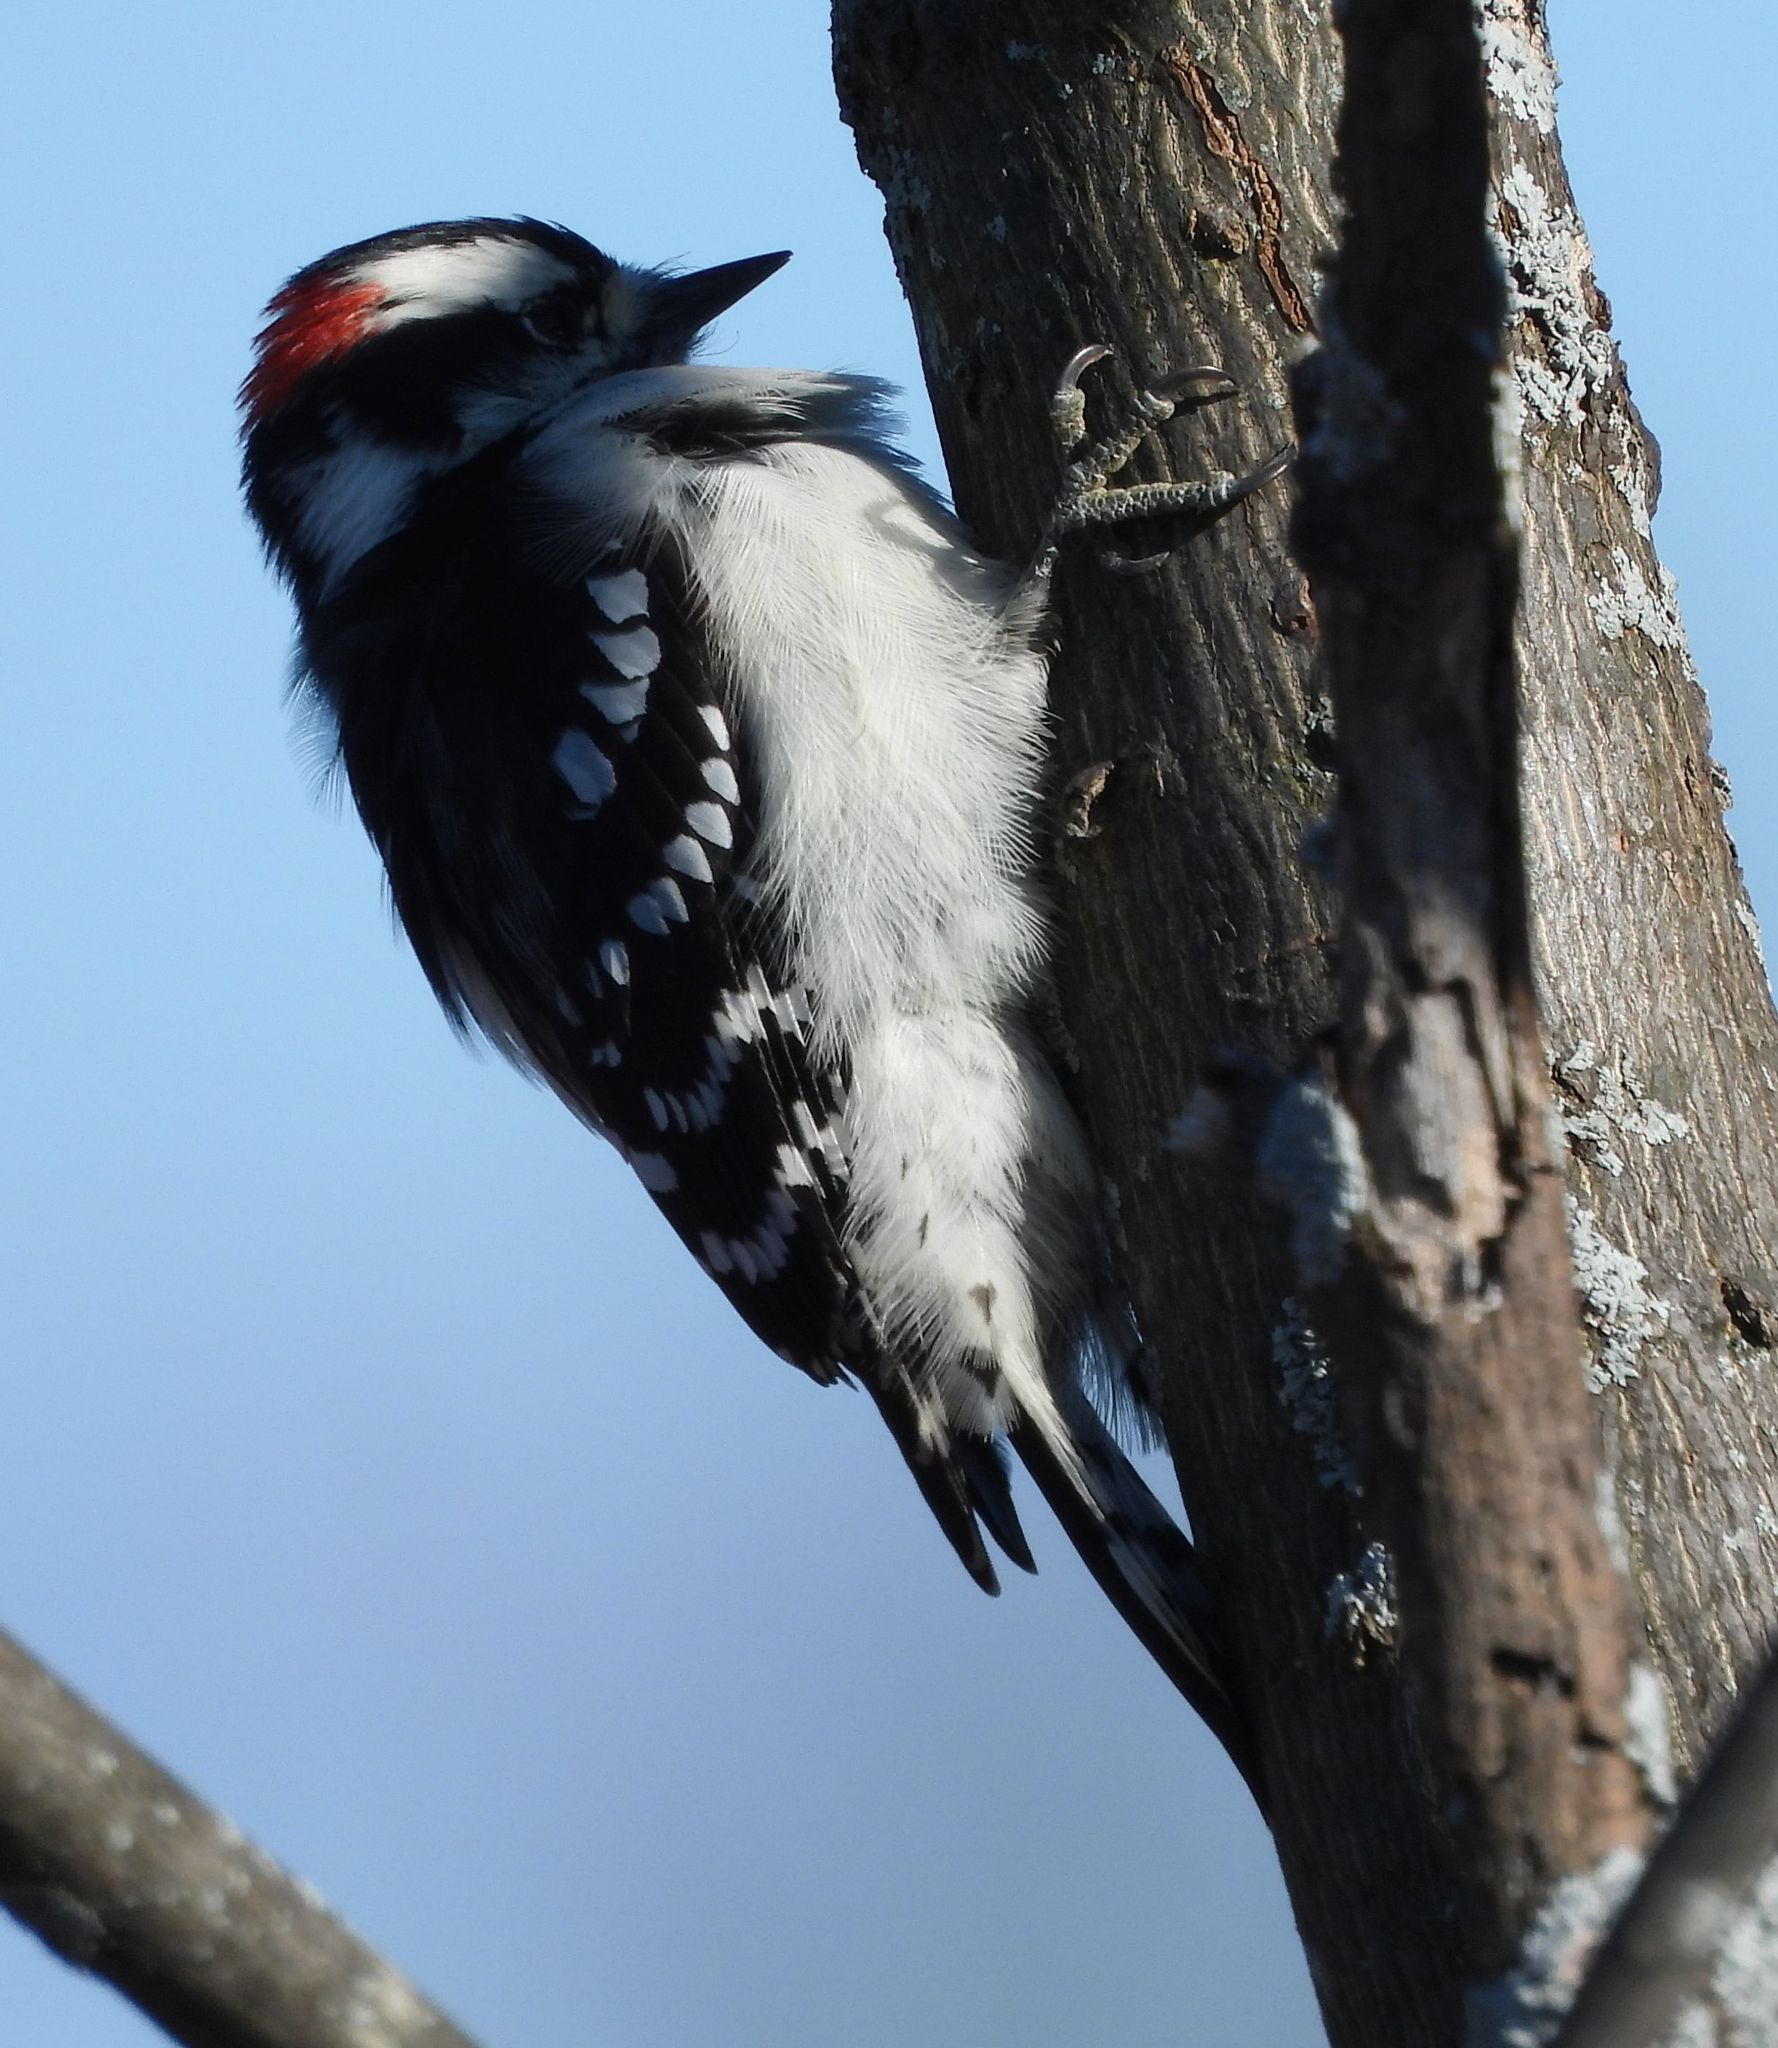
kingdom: Animalia
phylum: Chordata
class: Aves
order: Piciformes
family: Picidae
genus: Dryobates
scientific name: Dryobates pubescens
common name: Downy woodpecker
